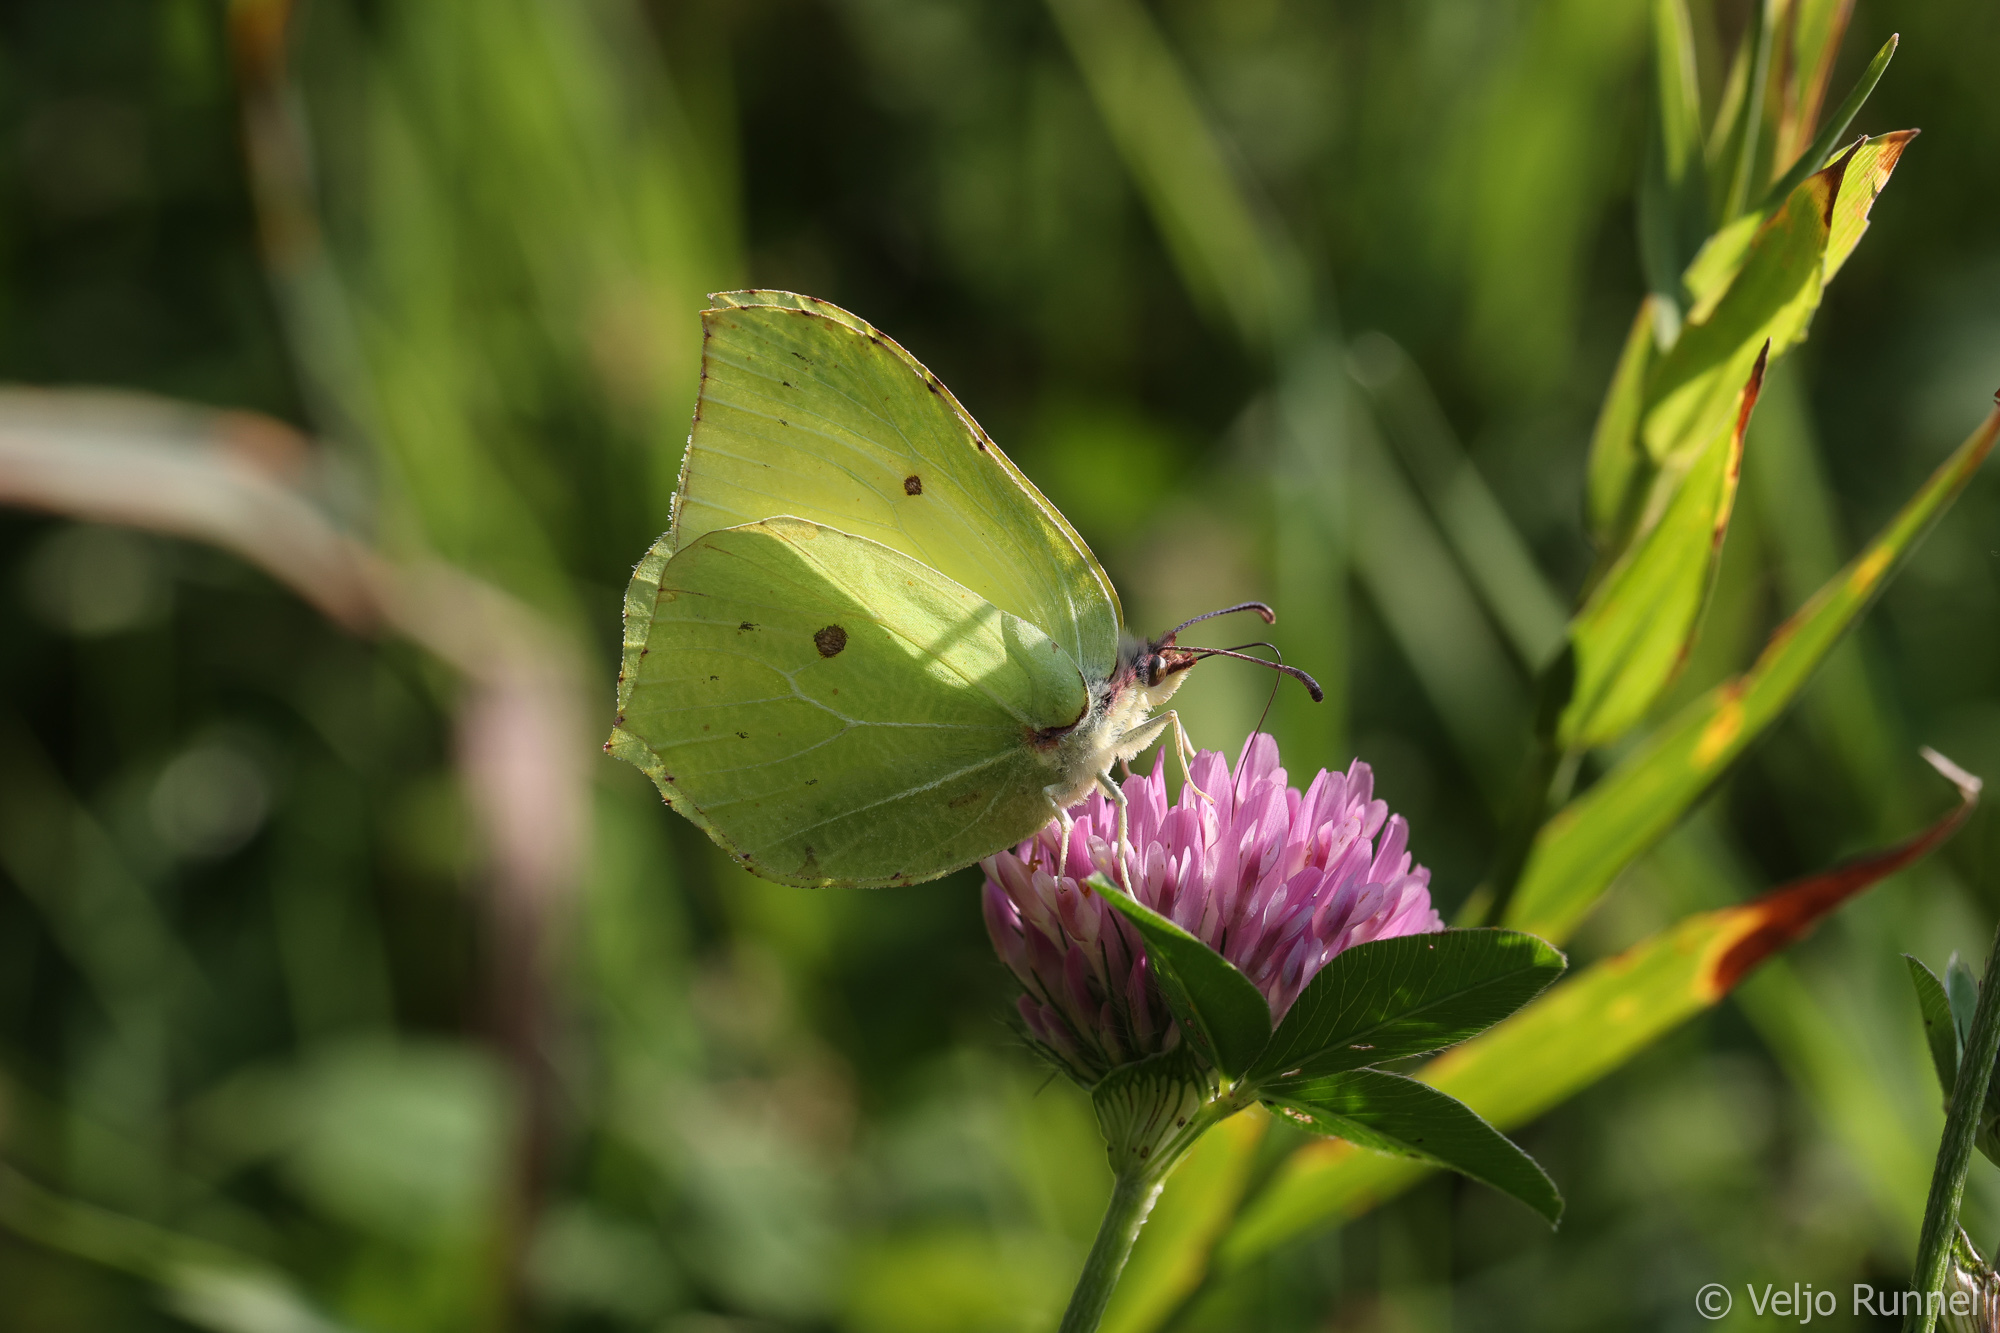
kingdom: Animalia
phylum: Arthropoda
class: Insecta
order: Lepidoptera
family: Pieridae
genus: Gonepteryx
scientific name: Gonepteryx rhamni
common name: Brimstone
